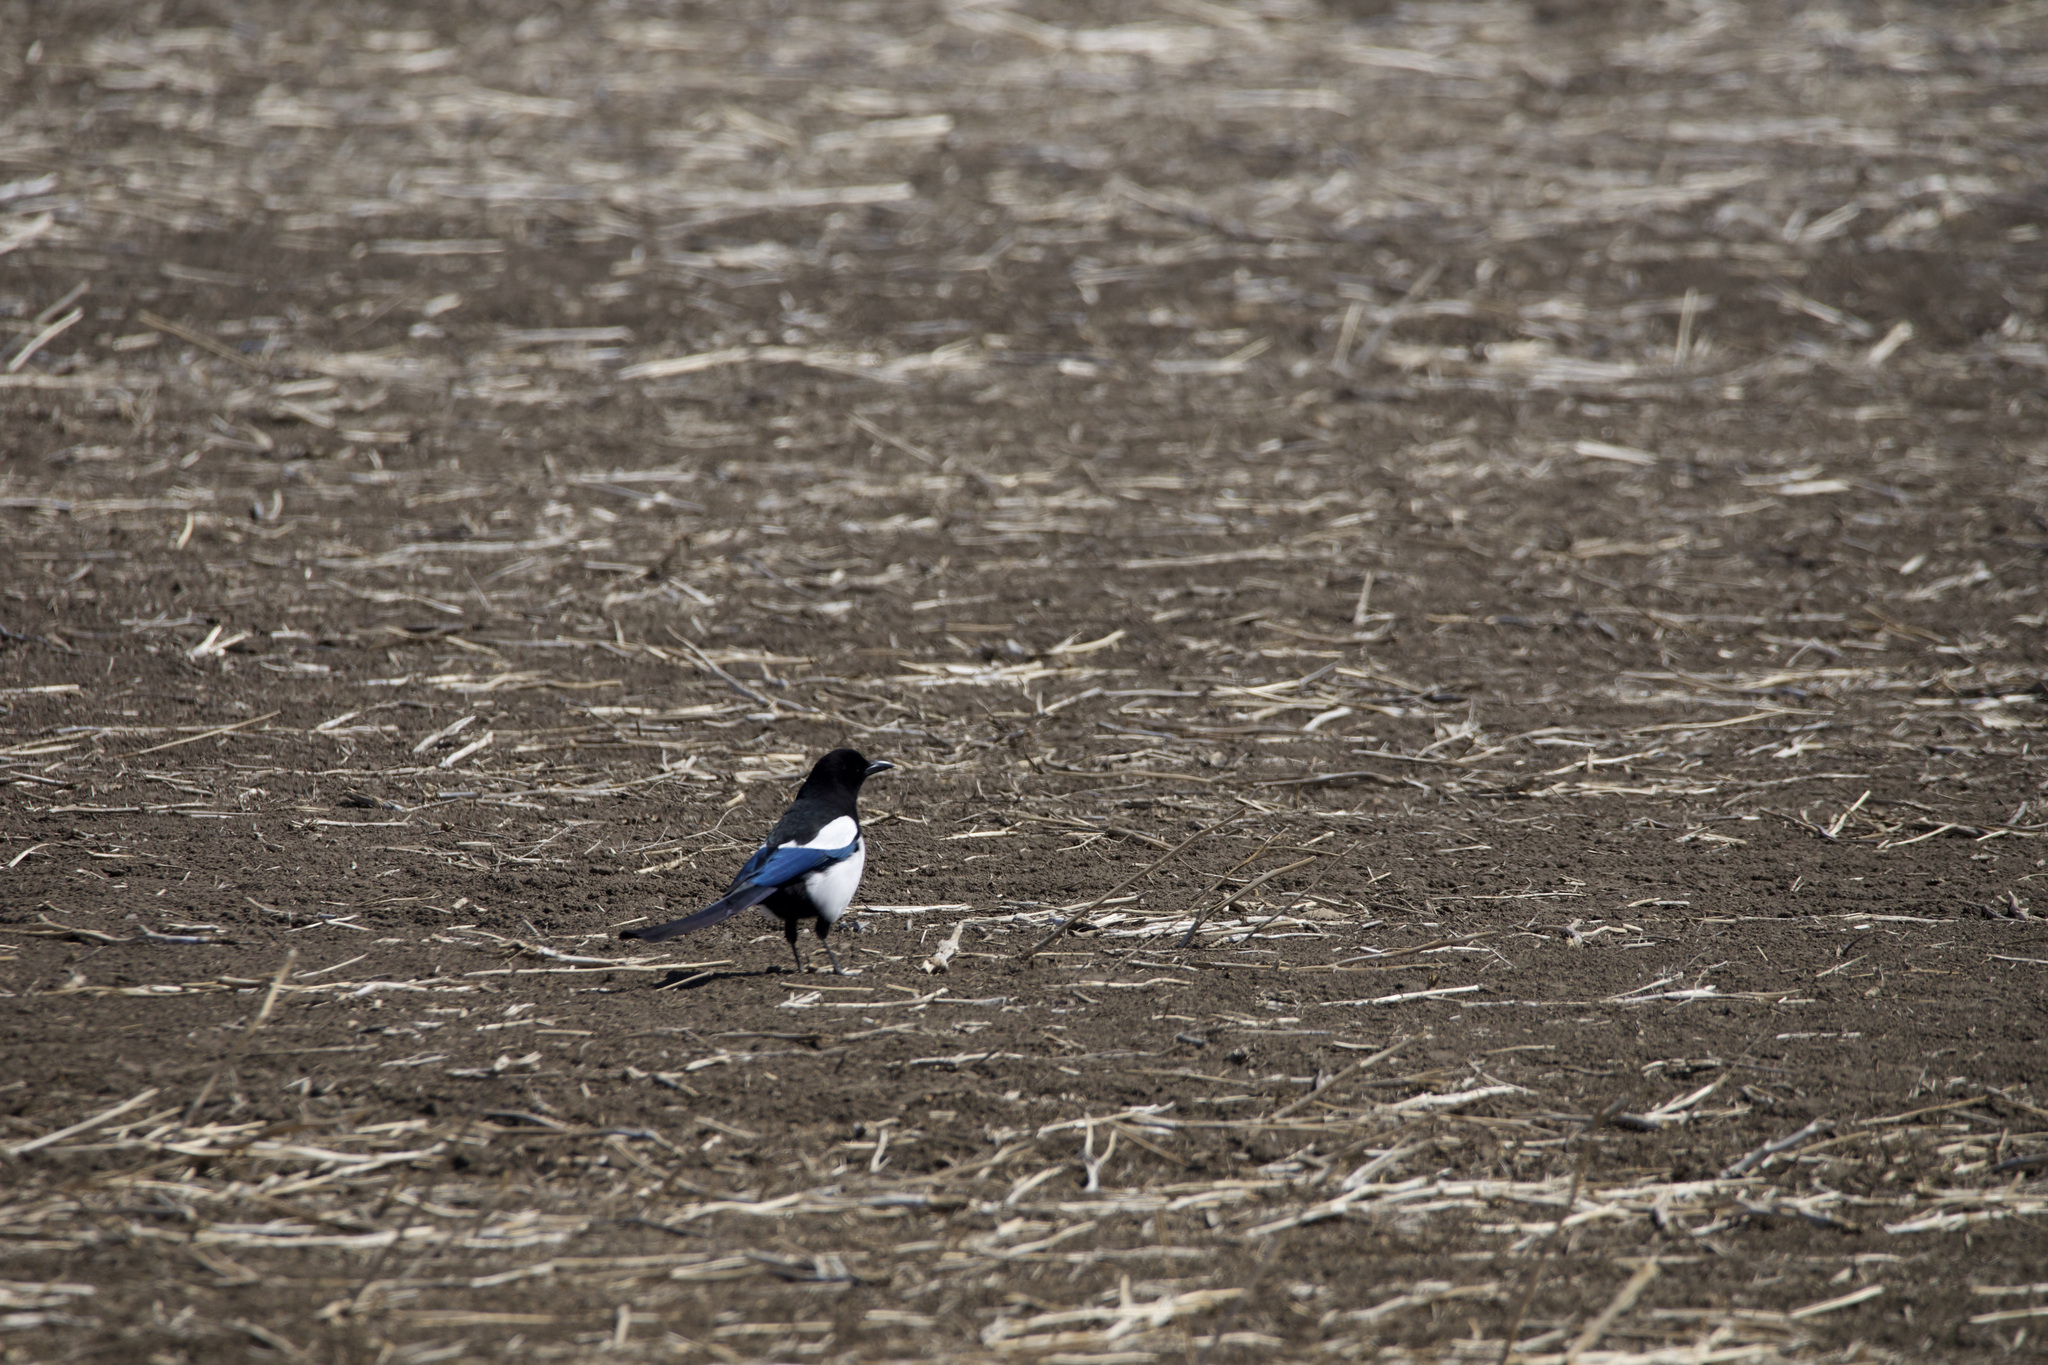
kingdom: Animalia
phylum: Chordata
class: Aves
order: Passeriformes
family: Corvidae
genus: Pica
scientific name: Pica hudsonia
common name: Black-billed magpie
